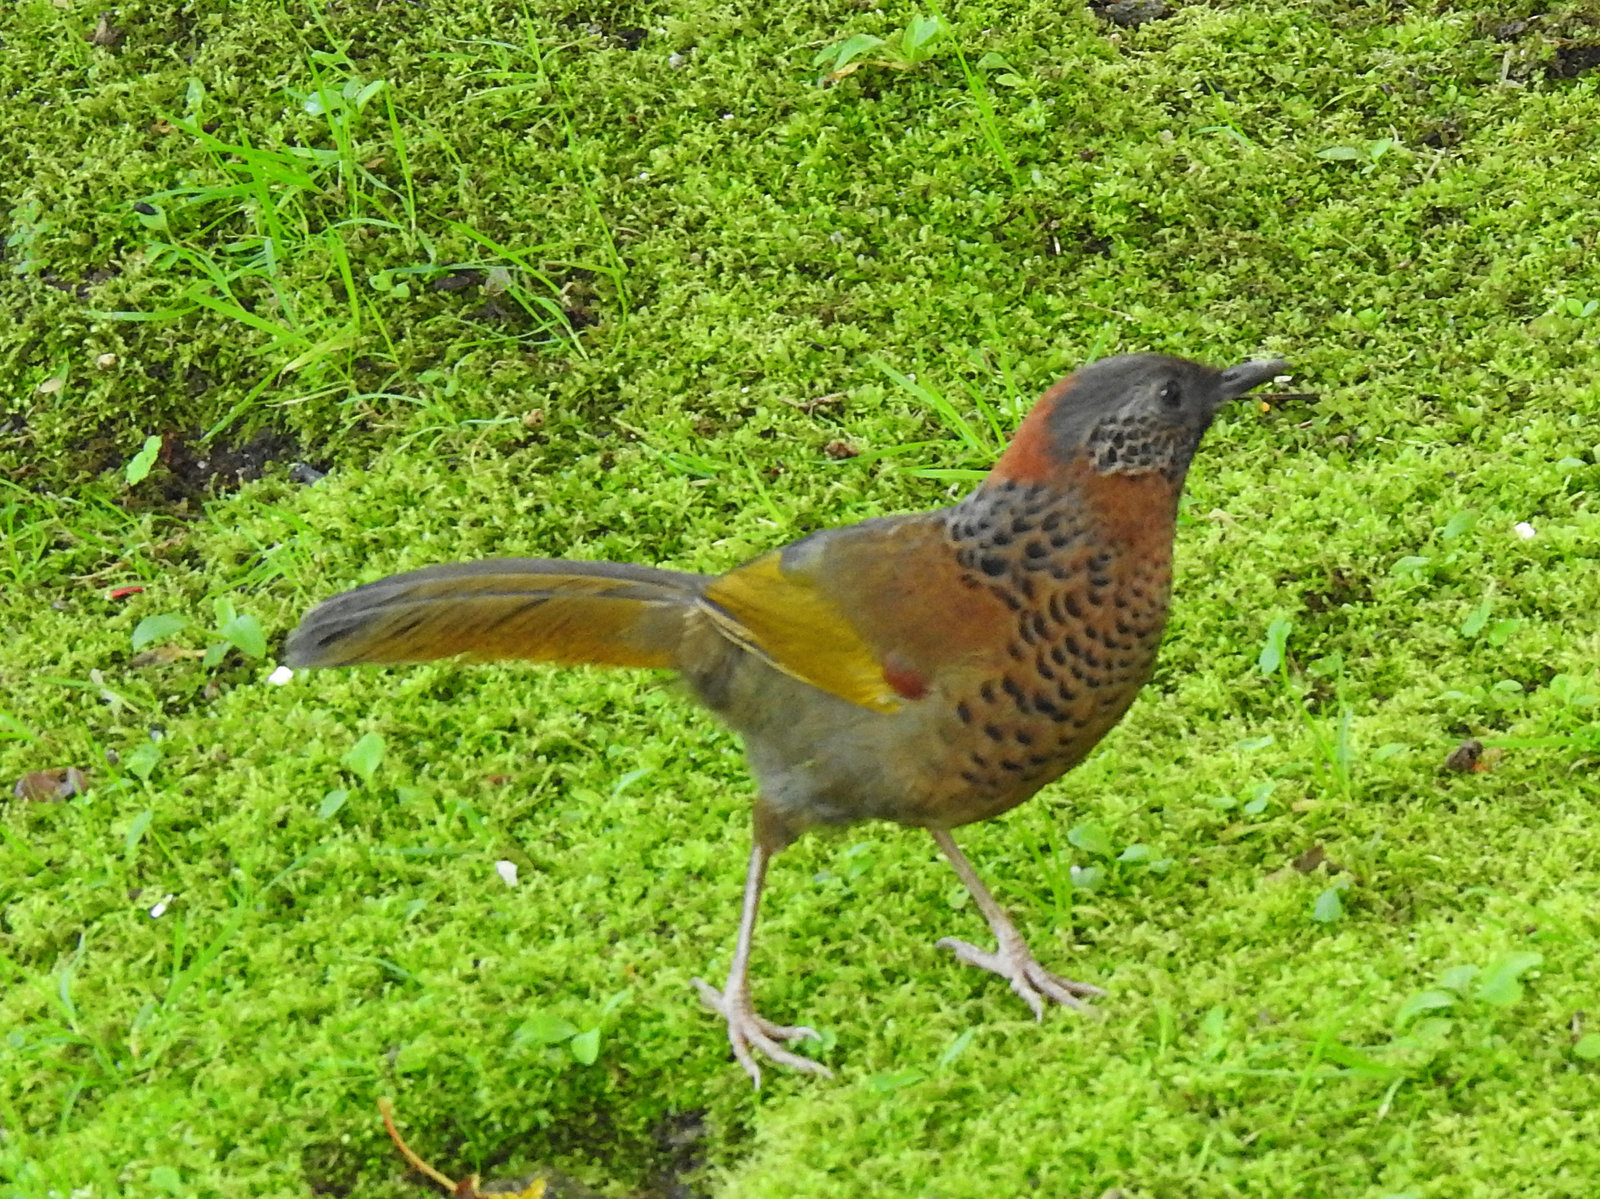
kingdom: Animalia
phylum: Chordata
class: Aves
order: Passeriformes
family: Leiothrichidae
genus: Trochalopteron
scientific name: Trochalopteron erythrocephalum
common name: Chestnut-crowned laughingthrush
